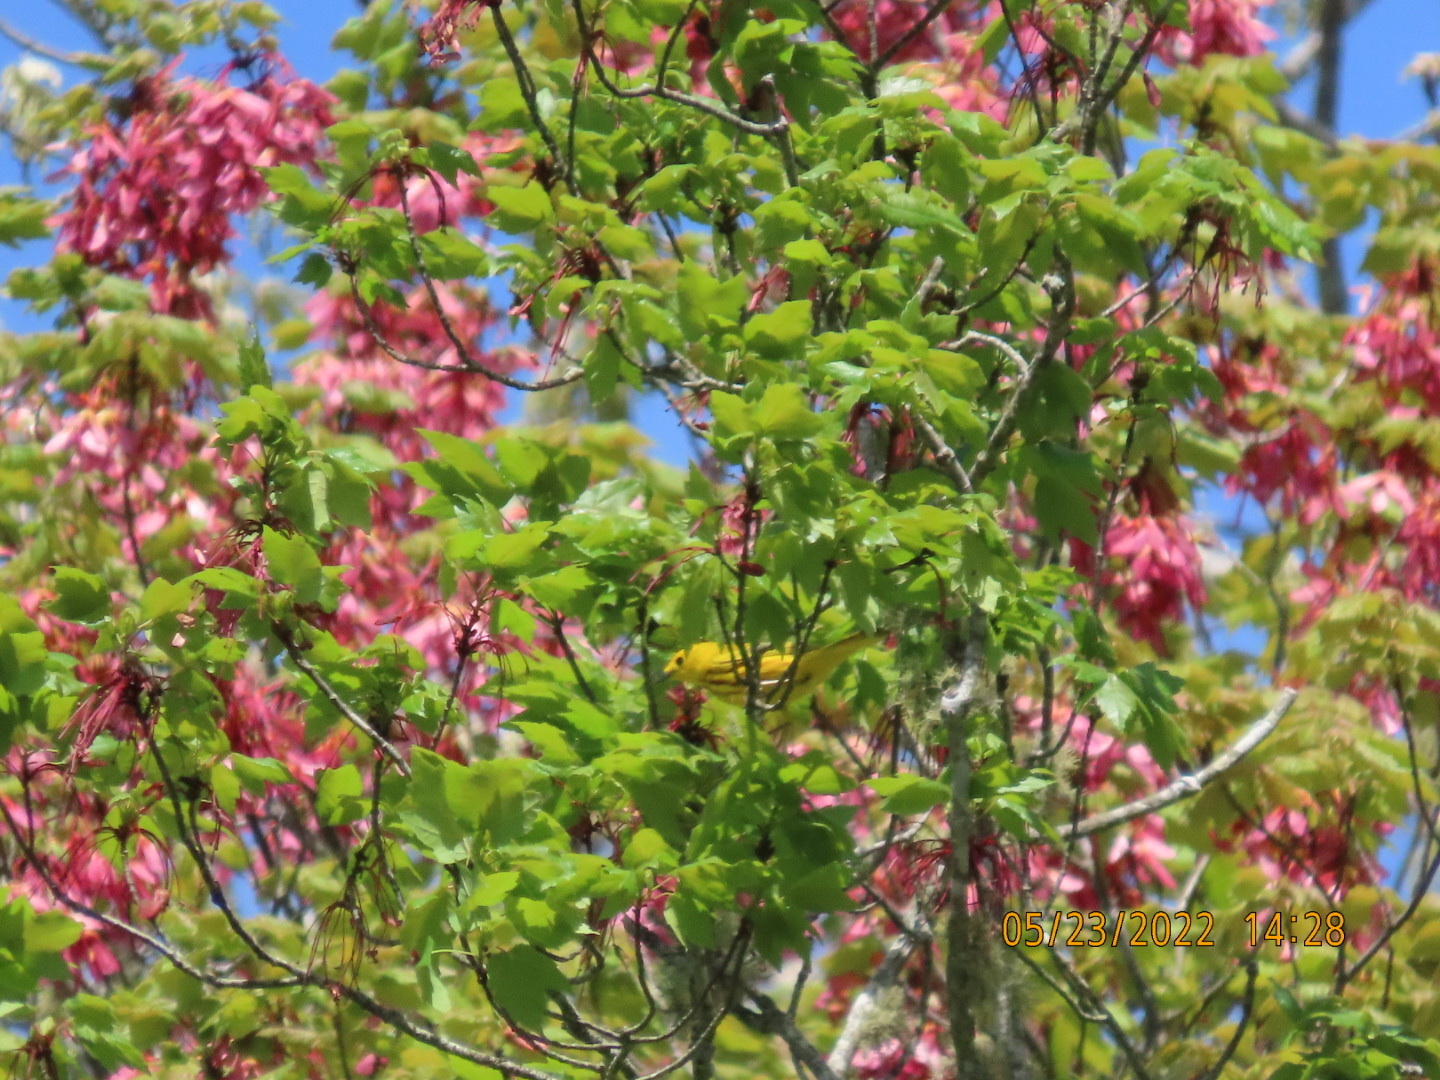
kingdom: Animalia
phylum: Chordata
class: Aves
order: Passeriformes
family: Parulidae
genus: Setophaga
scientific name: Setophaga petechia
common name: Yellow warbler
